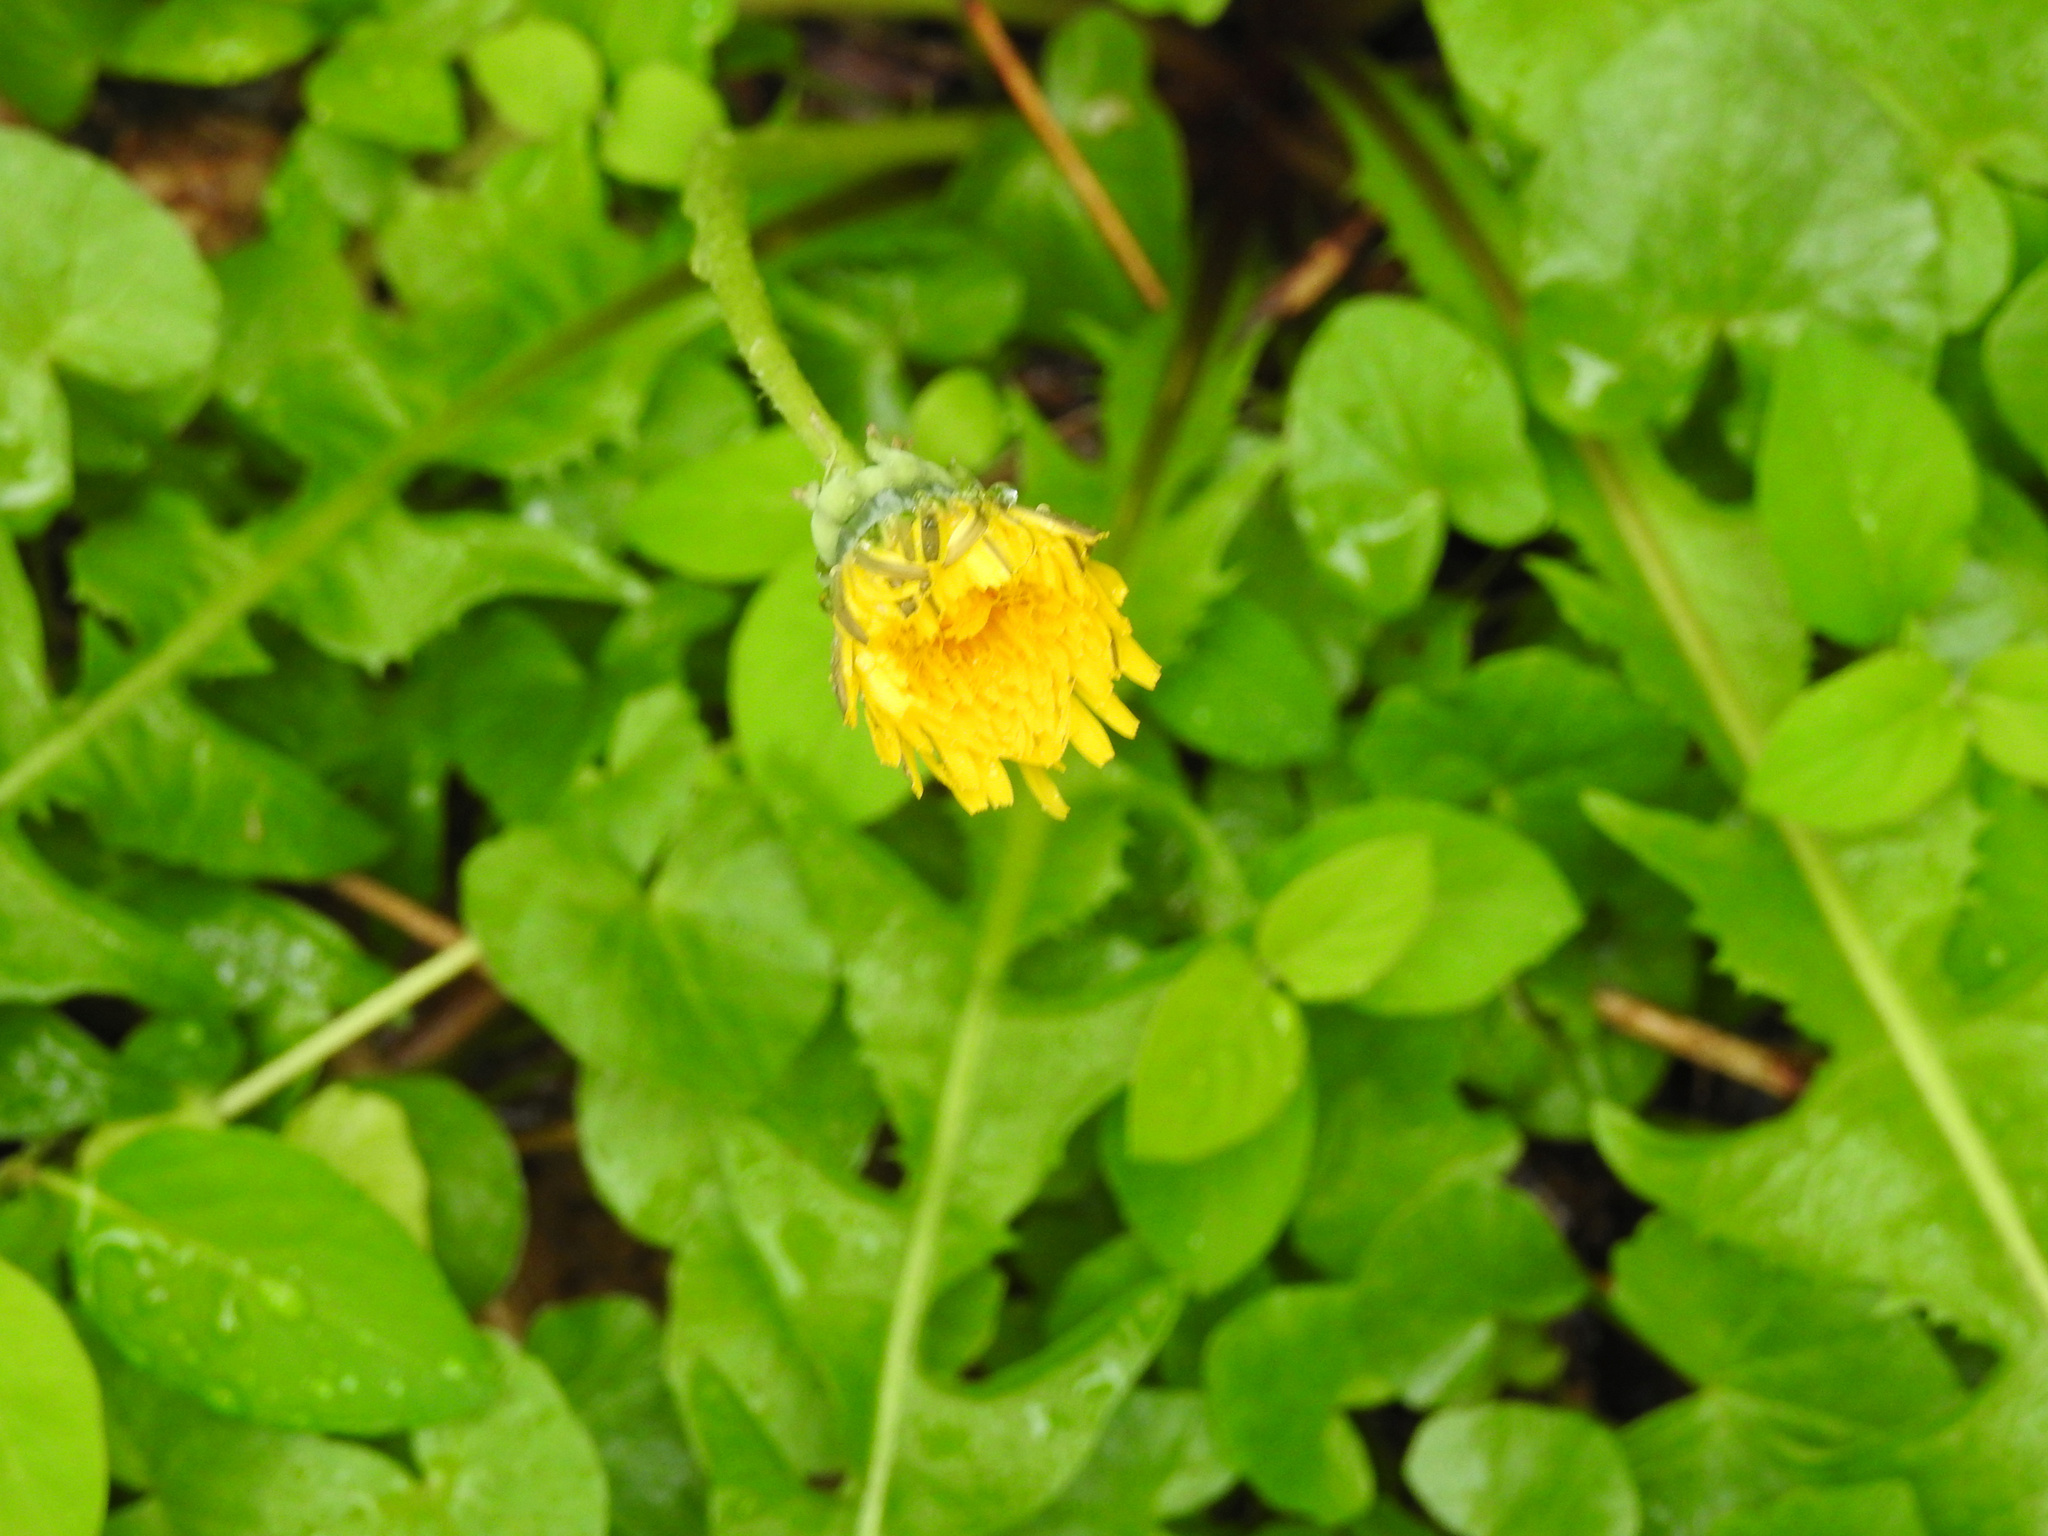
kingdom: Plantae
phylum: Tracheophyta
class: Magnoliopsida
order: Asterales
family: Asteraceae
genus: Taraxacum
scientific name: Taraxacum officinale
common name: Common dandelion
